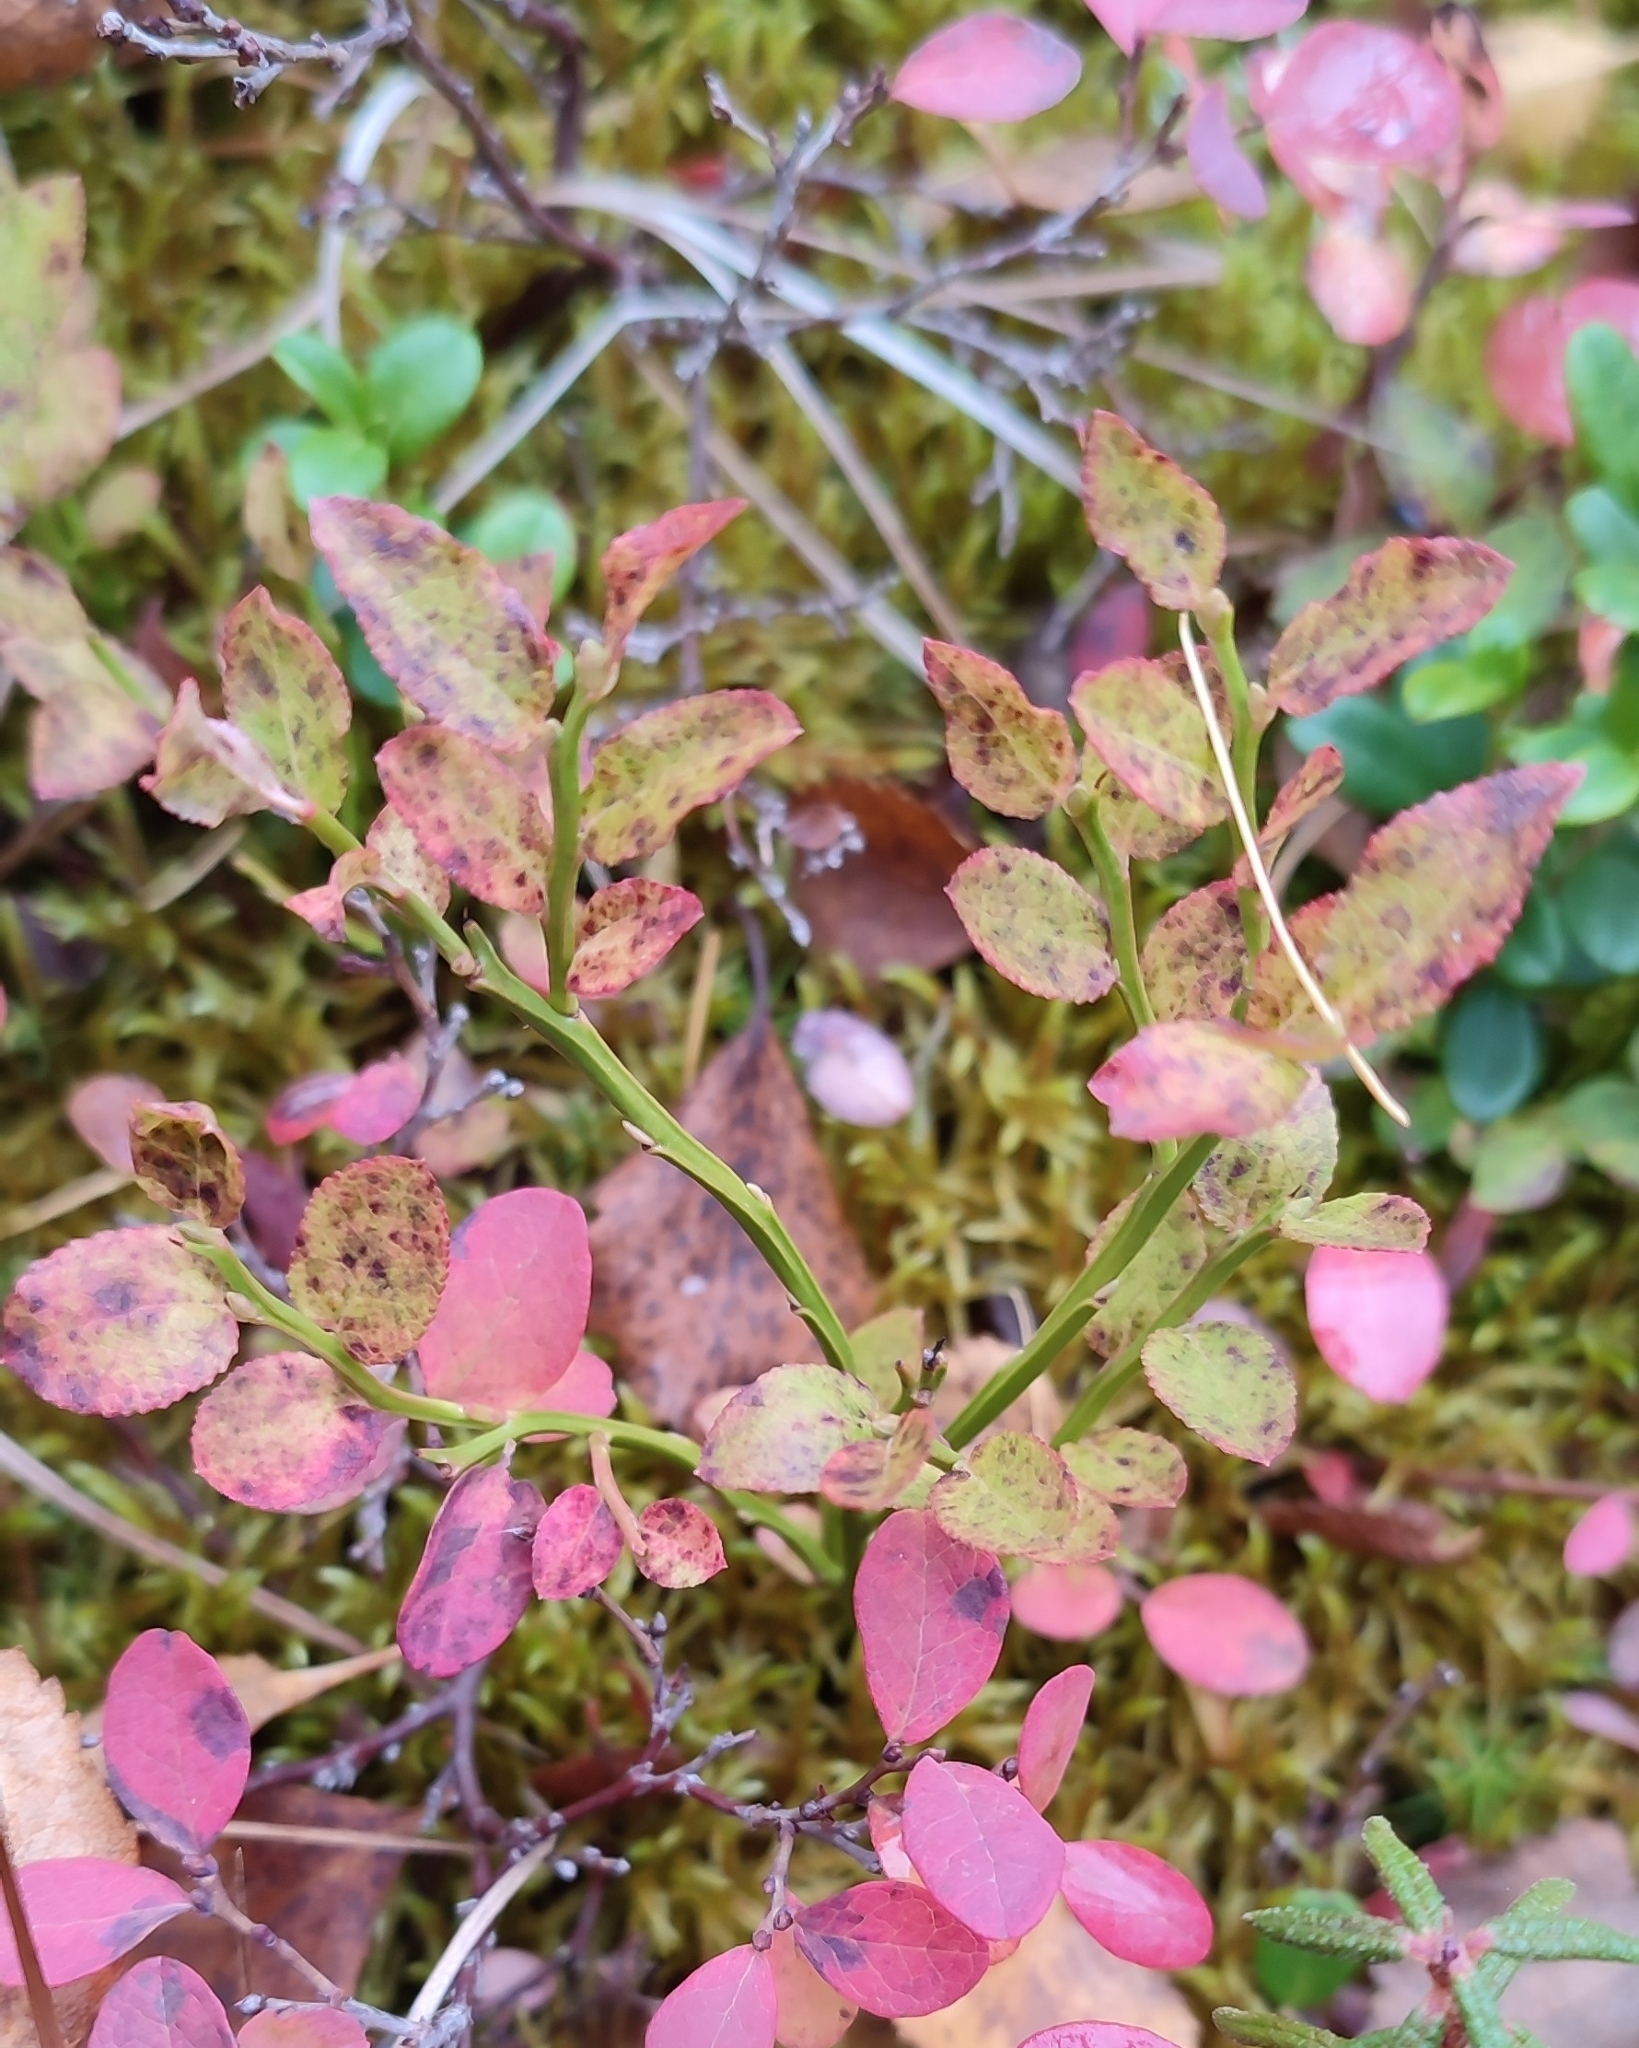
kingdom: Plantae
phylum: Tracheophyta
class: Magnoliopsida
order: Ericales
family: Ericaceae
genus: Vaccinium
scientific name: Vaccinium myrtillus
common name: Bilberry
